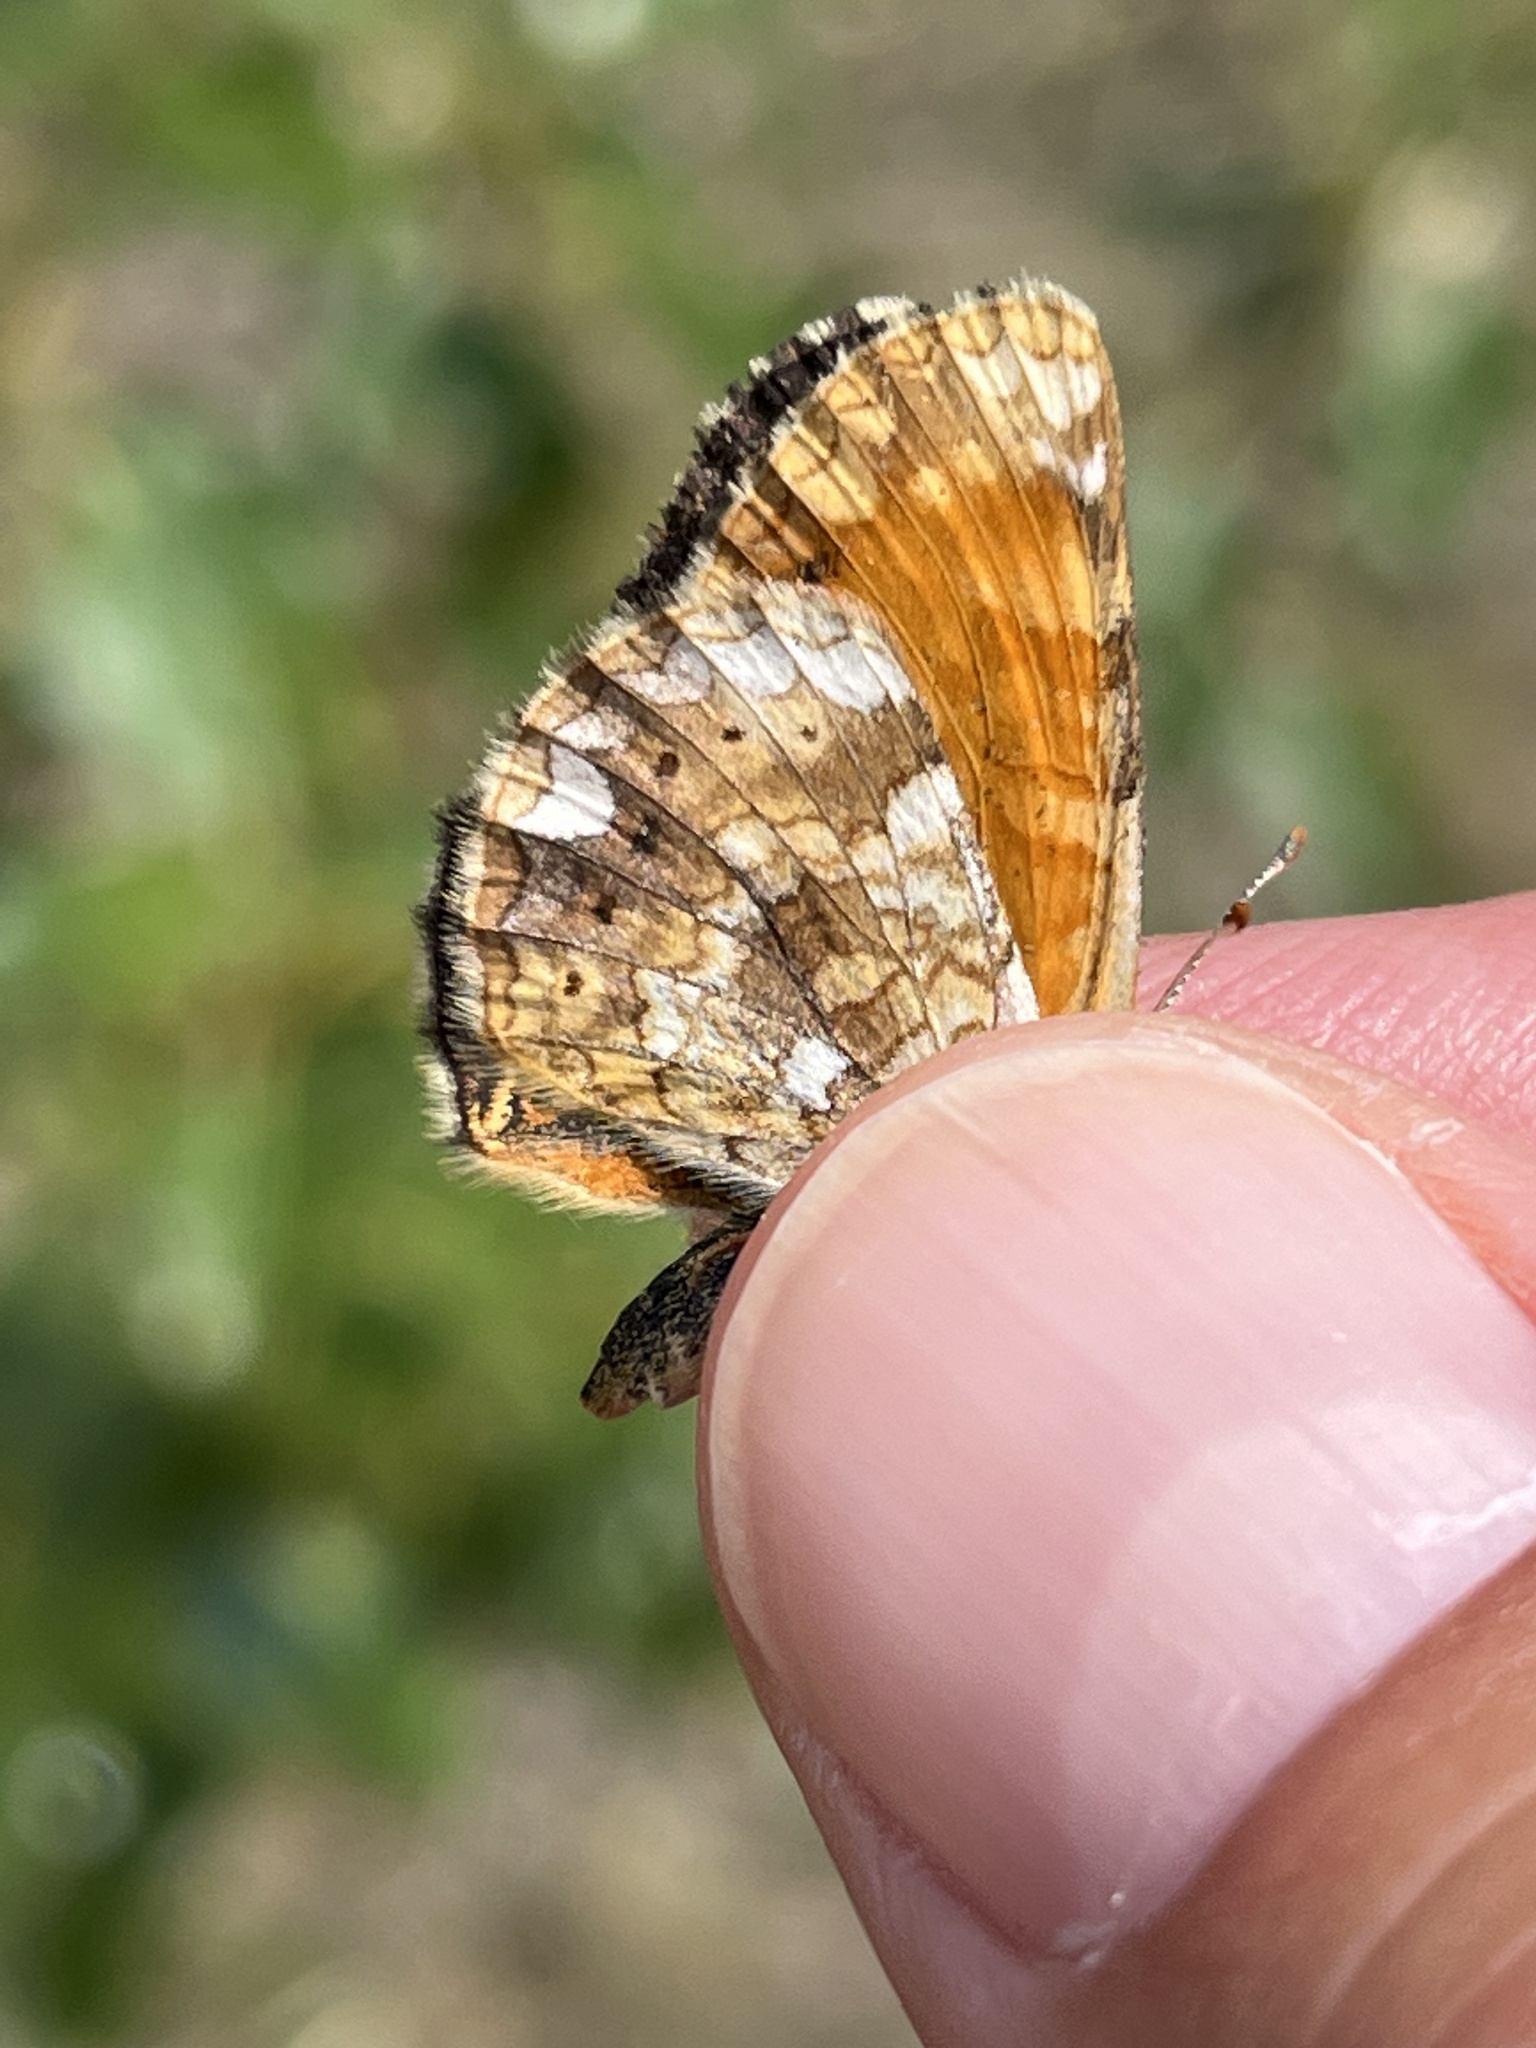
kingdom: Animalia
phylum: Arthropoda
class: Insecta
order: Lepidoptera
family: Nymphalidae
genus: Phyciodes
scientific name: Phyciodes tharos
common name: Pearl crescent
